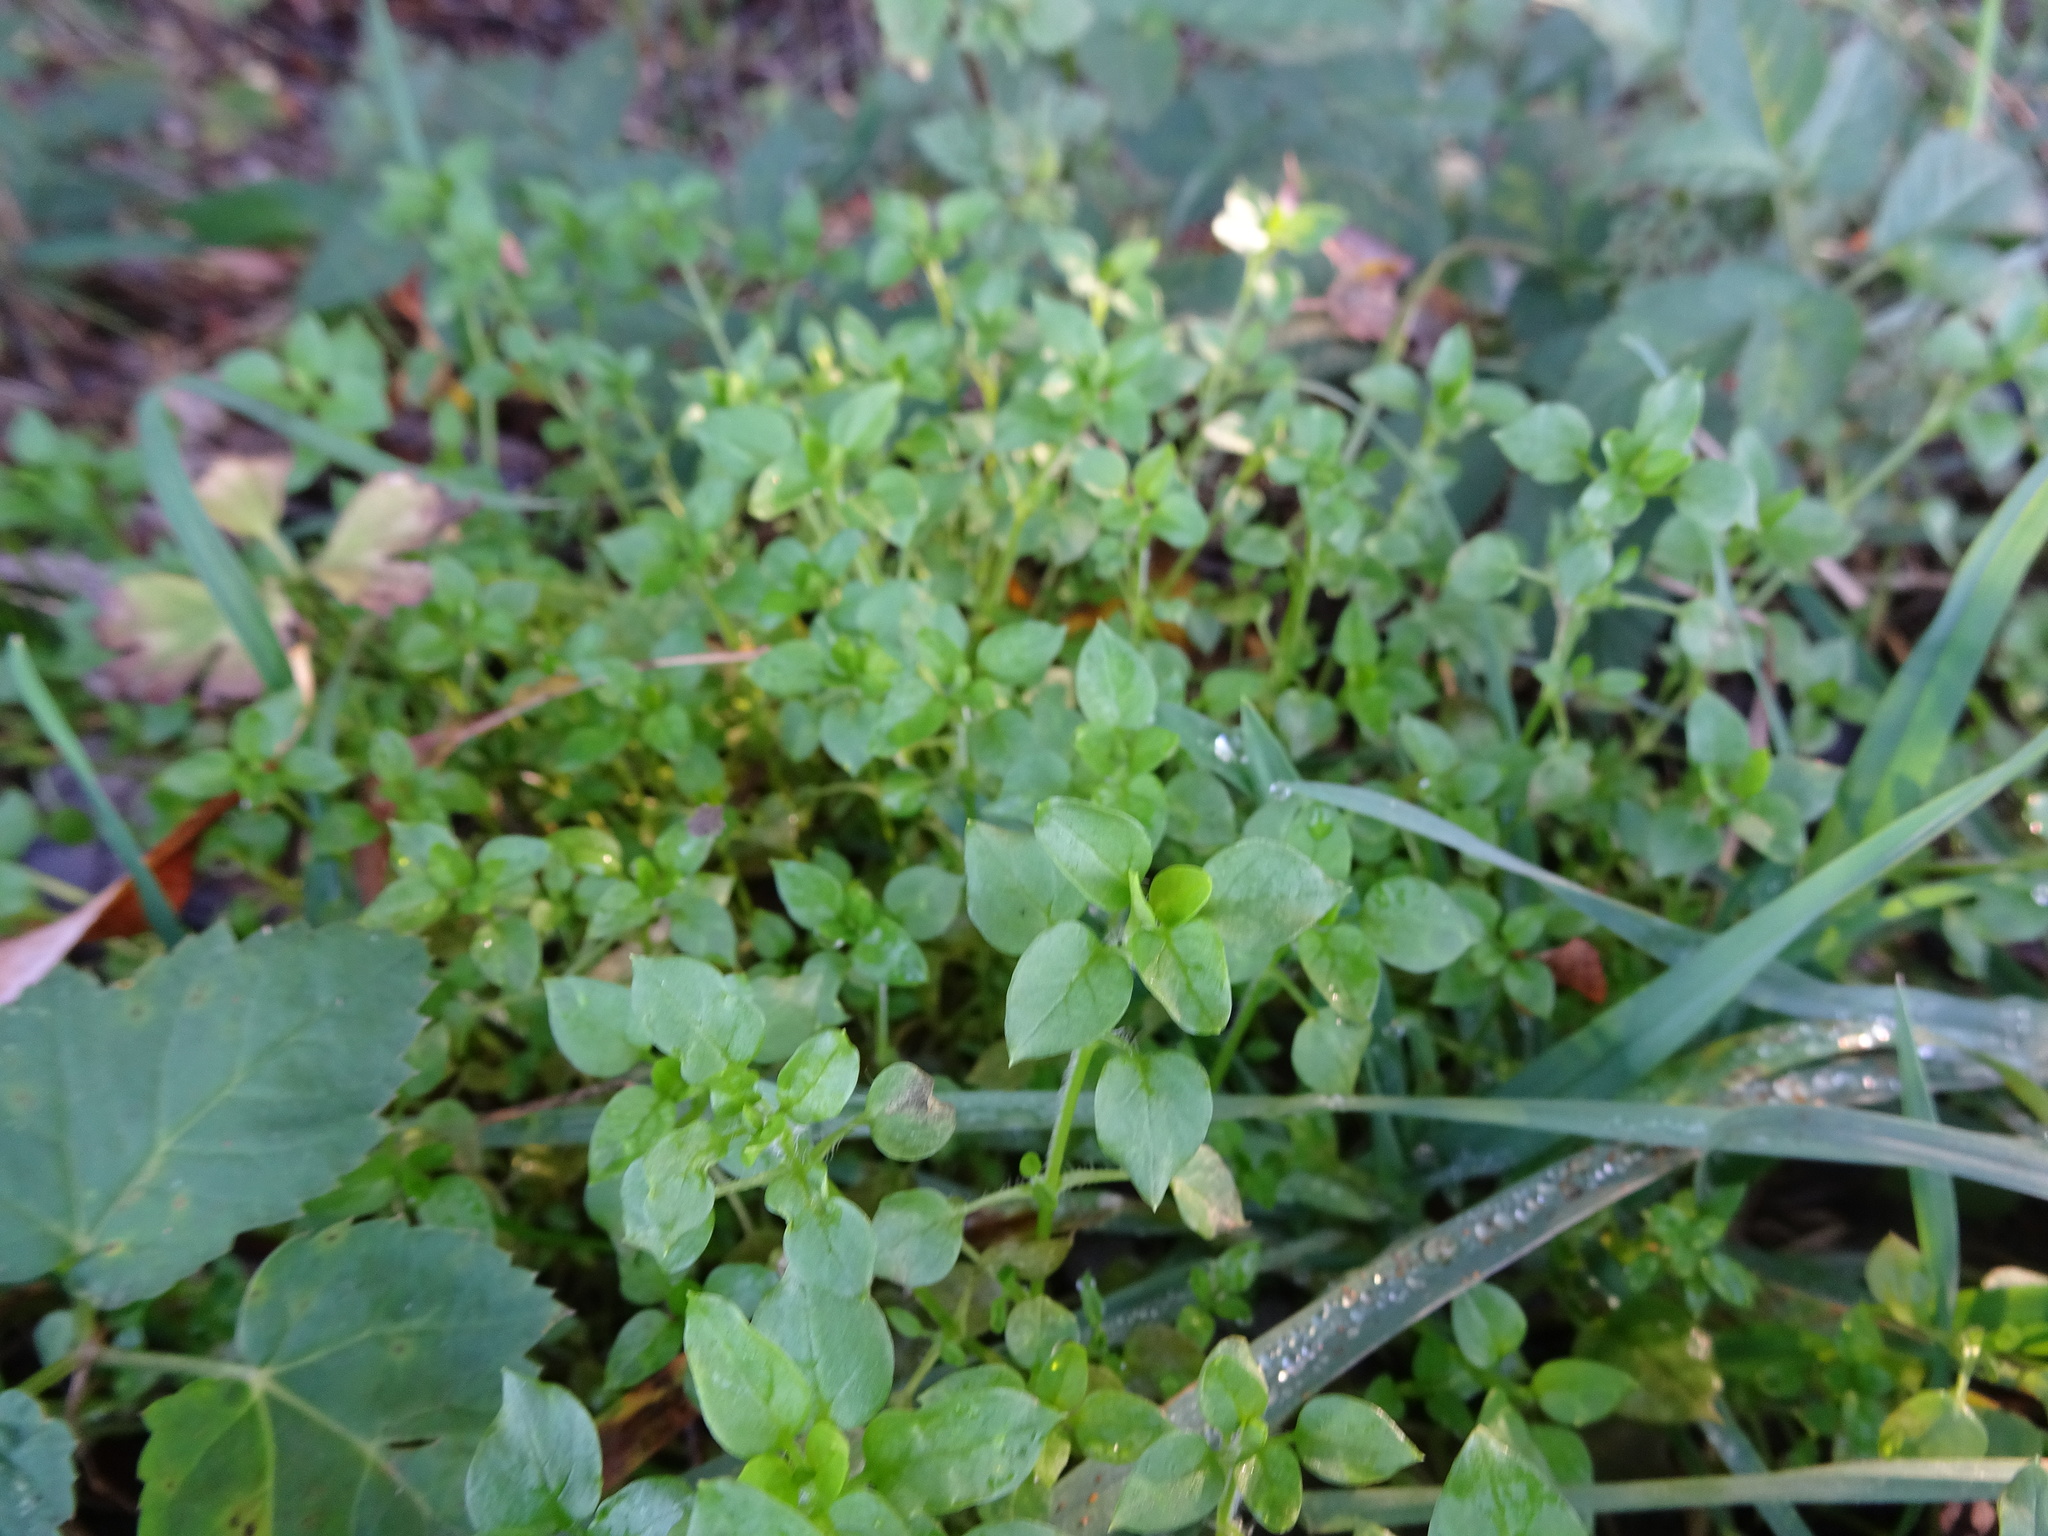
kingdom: Plantae
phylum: Tracheophyta
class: Magnoliopsida
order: Caryophyllales
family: Caryophyllaceae
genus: Stellaria
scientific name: Stellaria media
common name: Common chickweed
